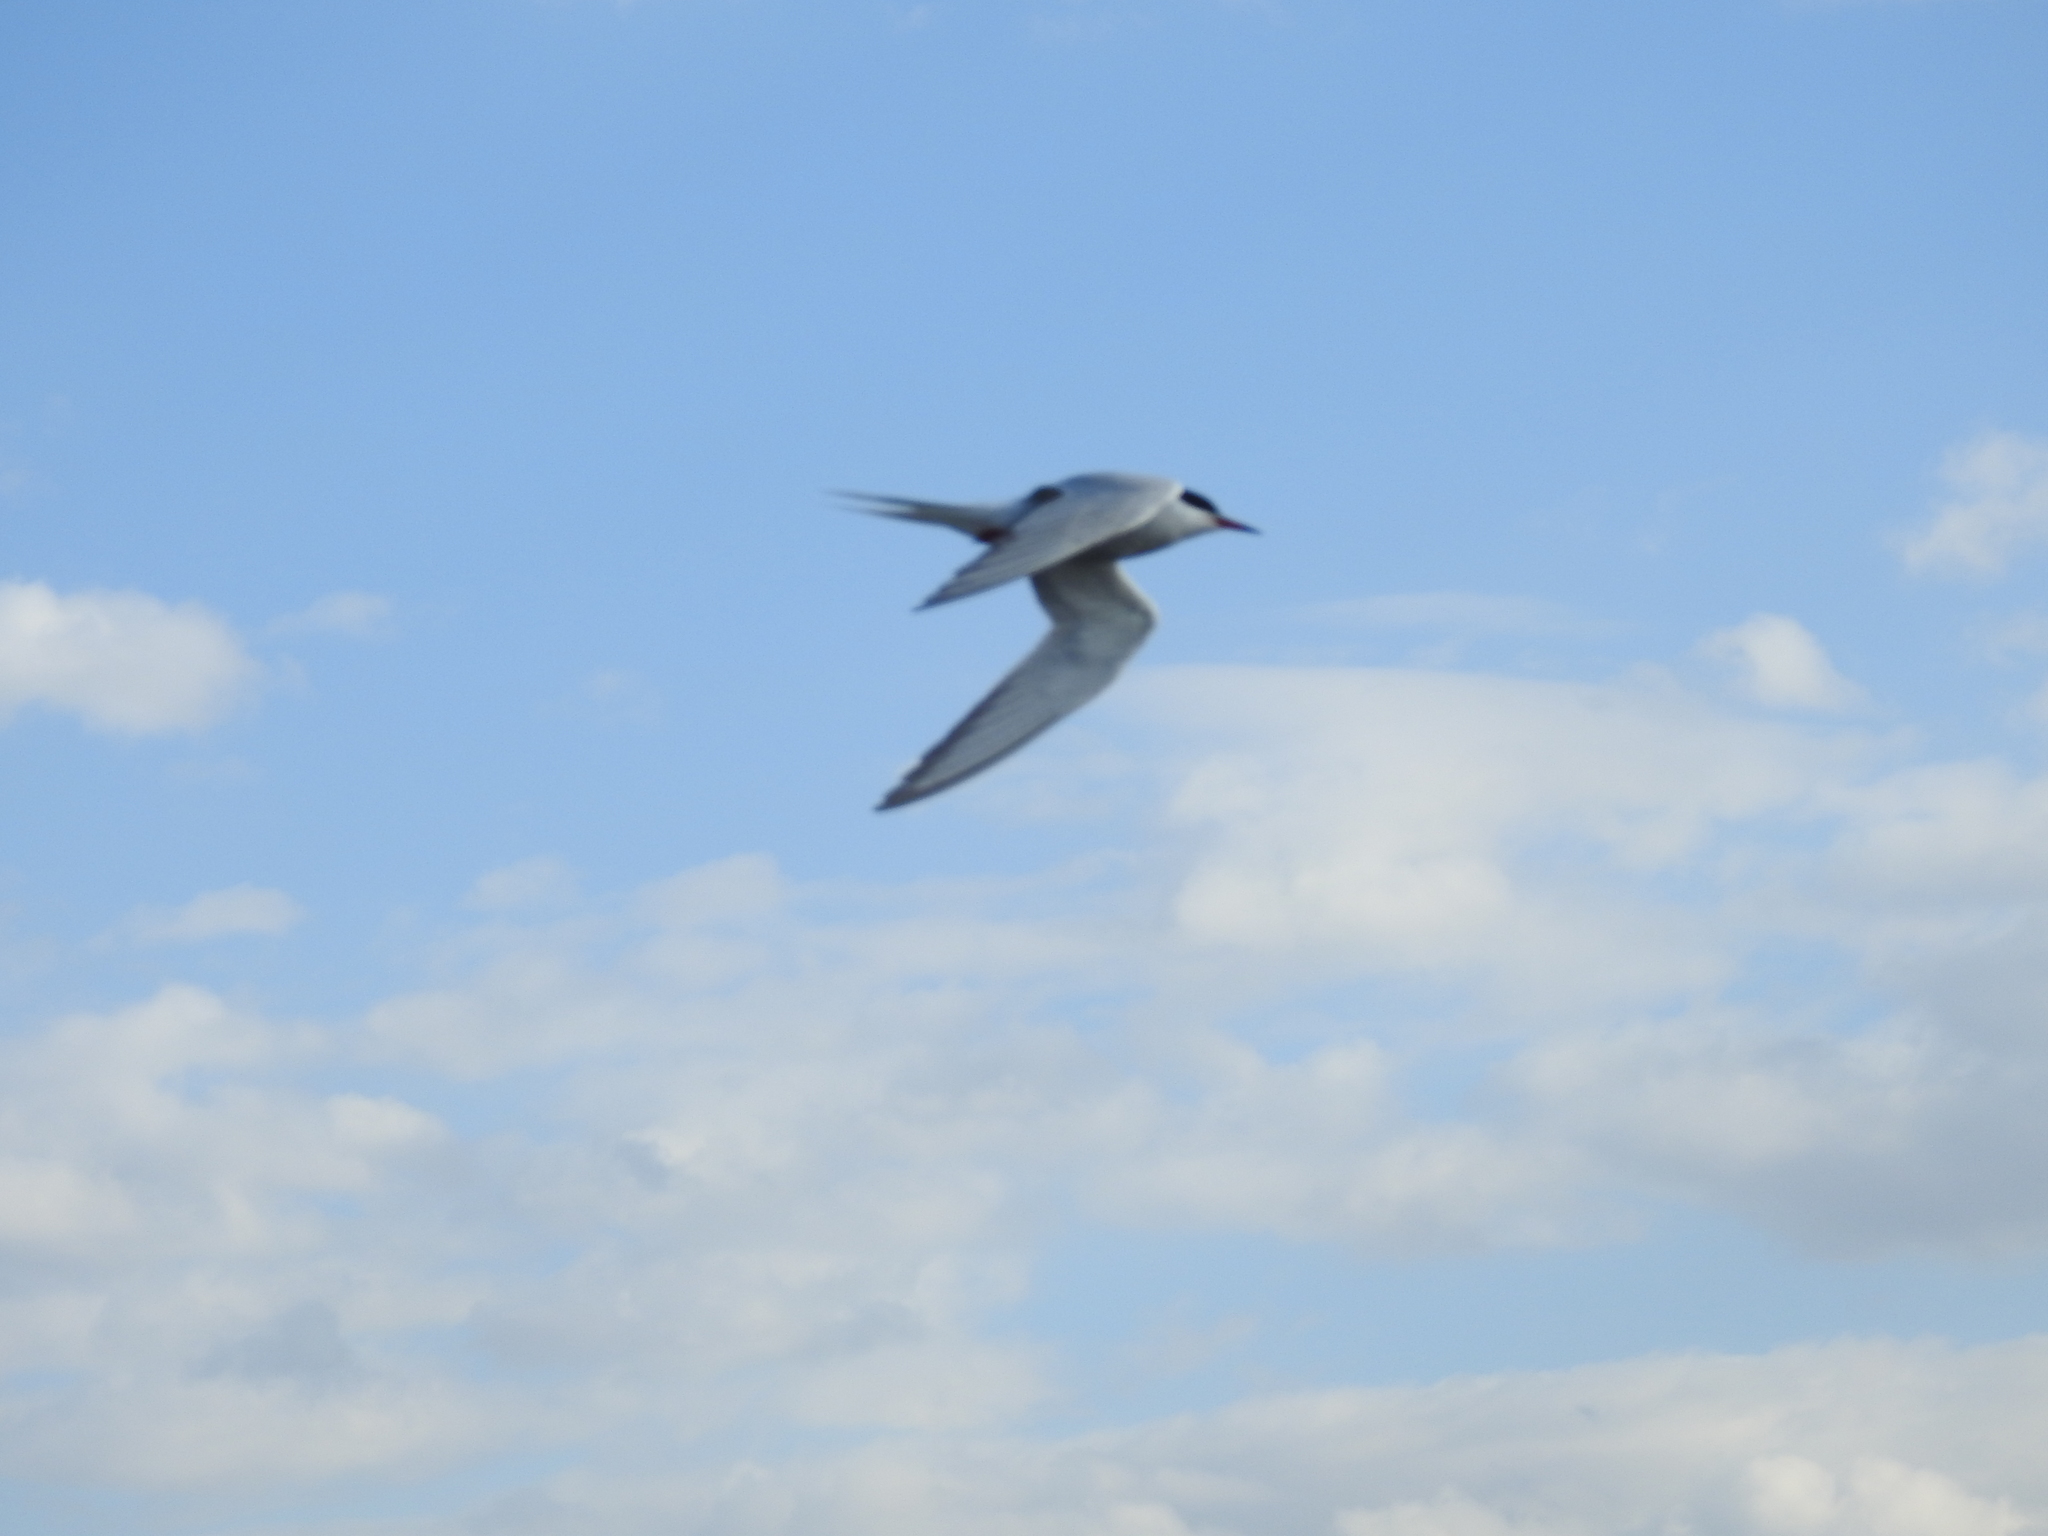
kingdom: Animalia
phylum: Chordata
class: Aves
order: Charadriiformes
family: Laridae
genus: Sterna
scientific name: Sterna hirundo
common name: Common tern
